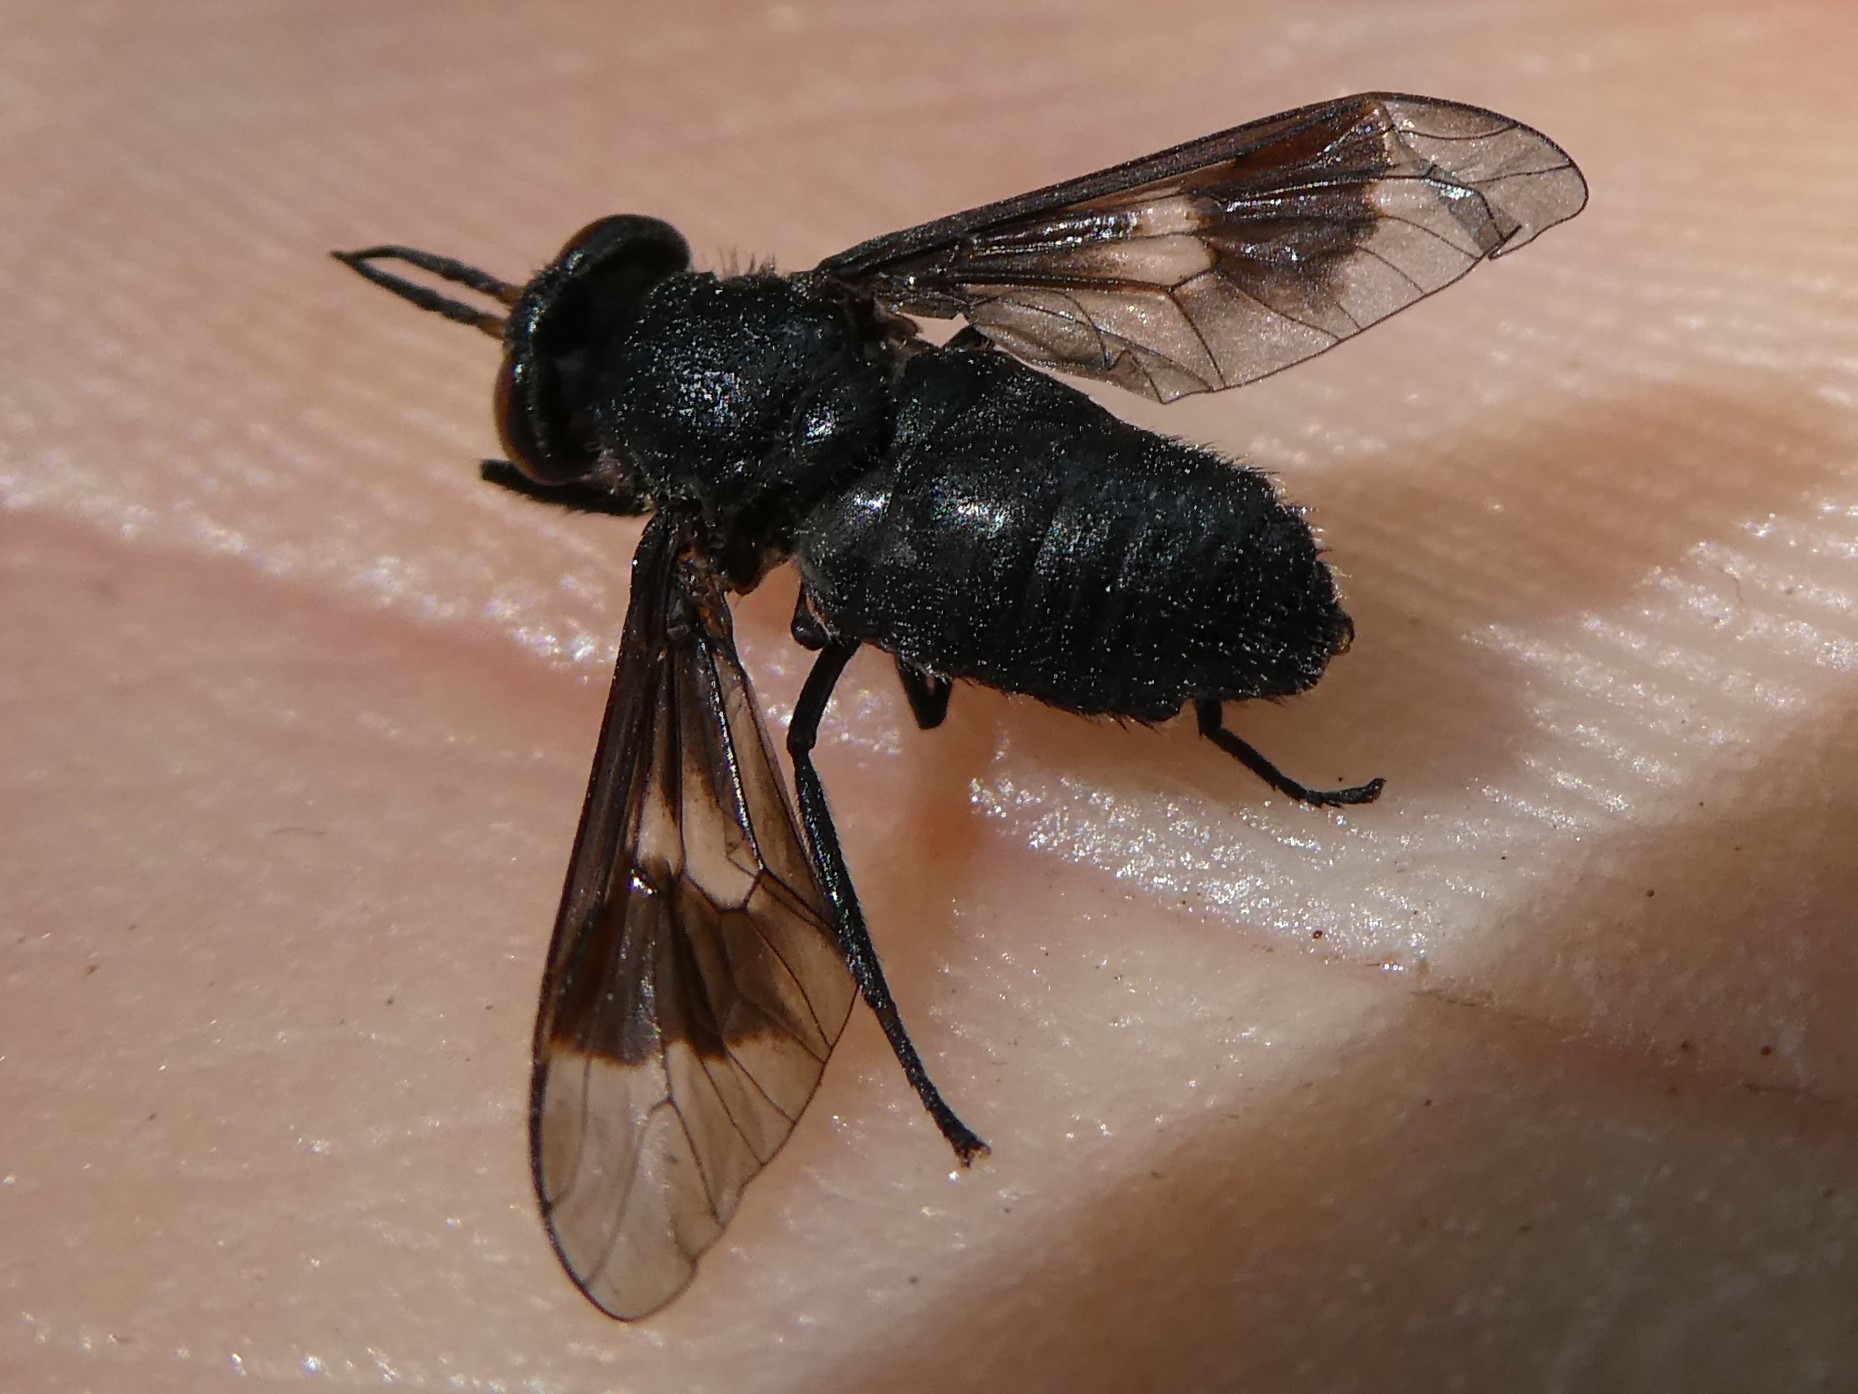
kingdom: Animalia
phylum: Arthropoda
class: Insecta
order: Diptera
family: Tabanidae
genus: Chrysops
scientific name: Chrysops ater
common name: Dark deer fly
